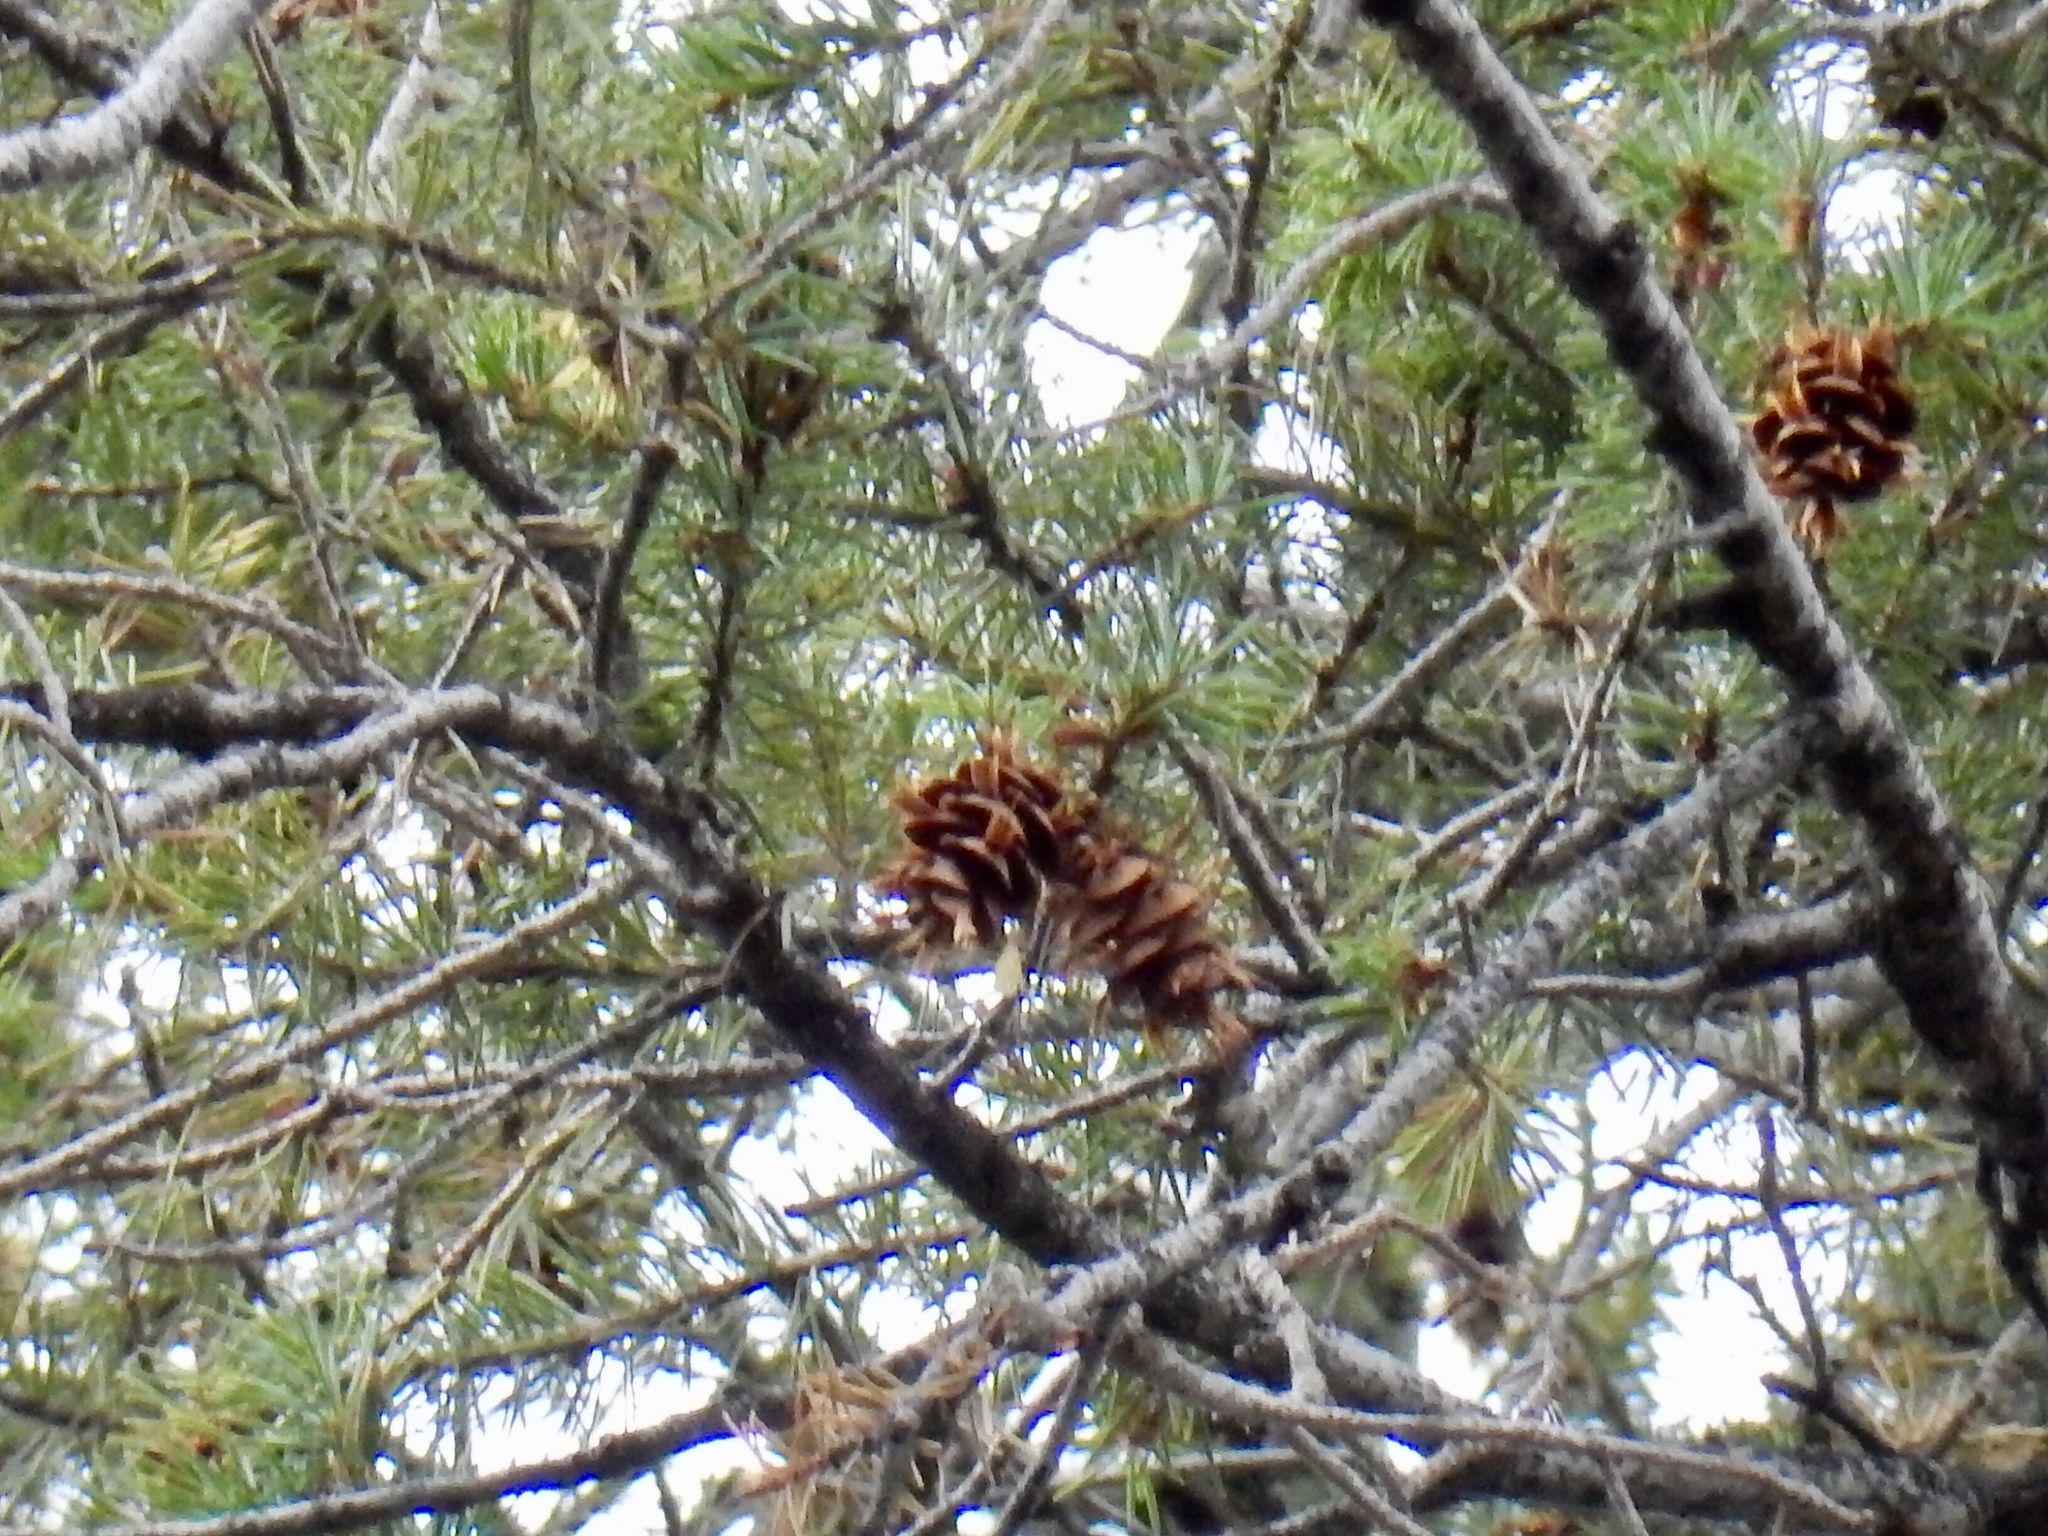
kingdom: Plantae
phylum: Tracheophyta
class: Pinopsida
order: Pinales
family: Pinaceae
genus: Pseudotsuga
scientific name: Pseudotsuga menziesii
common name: Douglas fir
